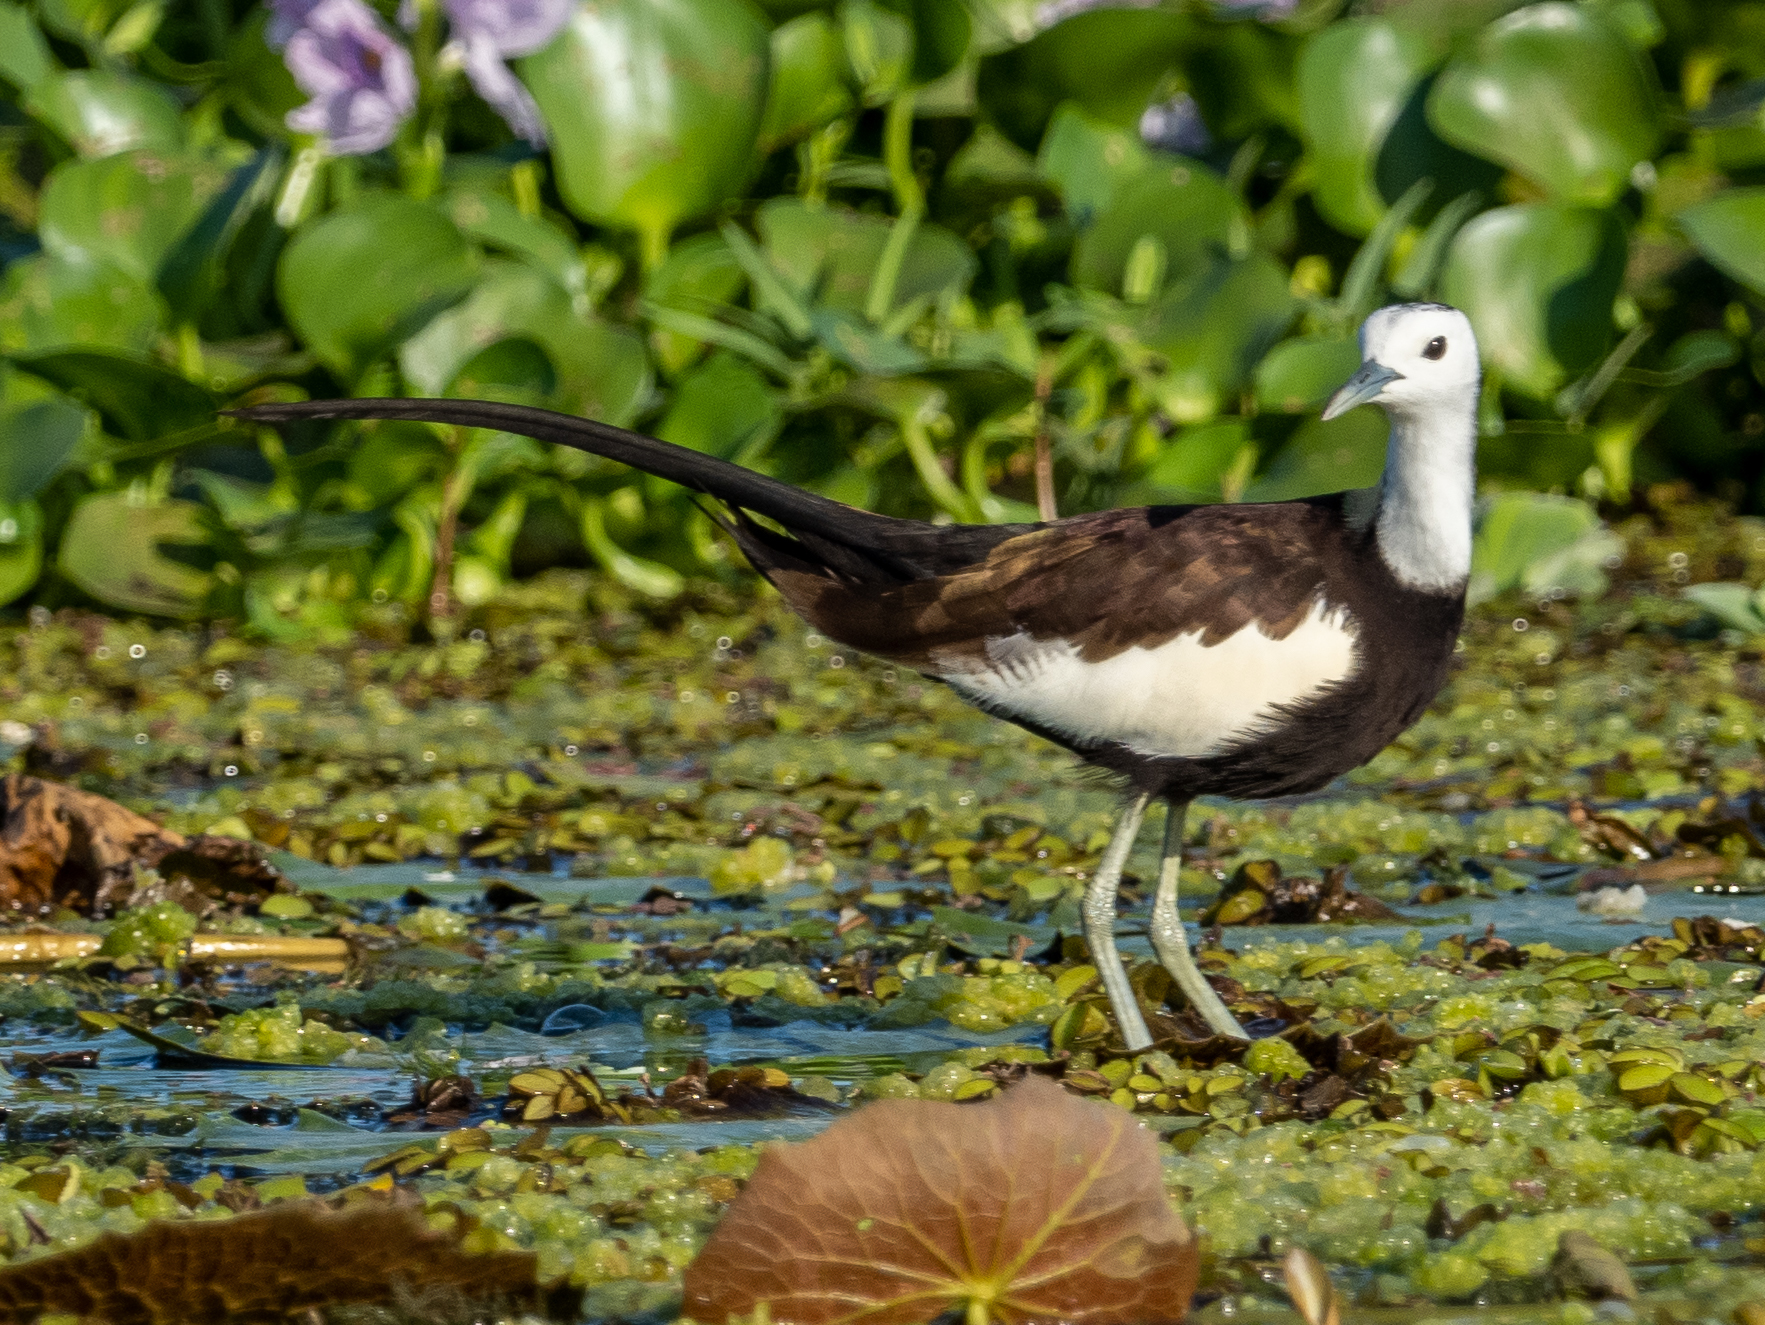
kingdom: Animalia
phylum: Chordata
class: Aves
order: Charadriiformes
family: Jacanidae
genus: Hydrophasianus
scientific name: Hydrophasianus chirurgus
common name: Pheasant-tailed jacana
